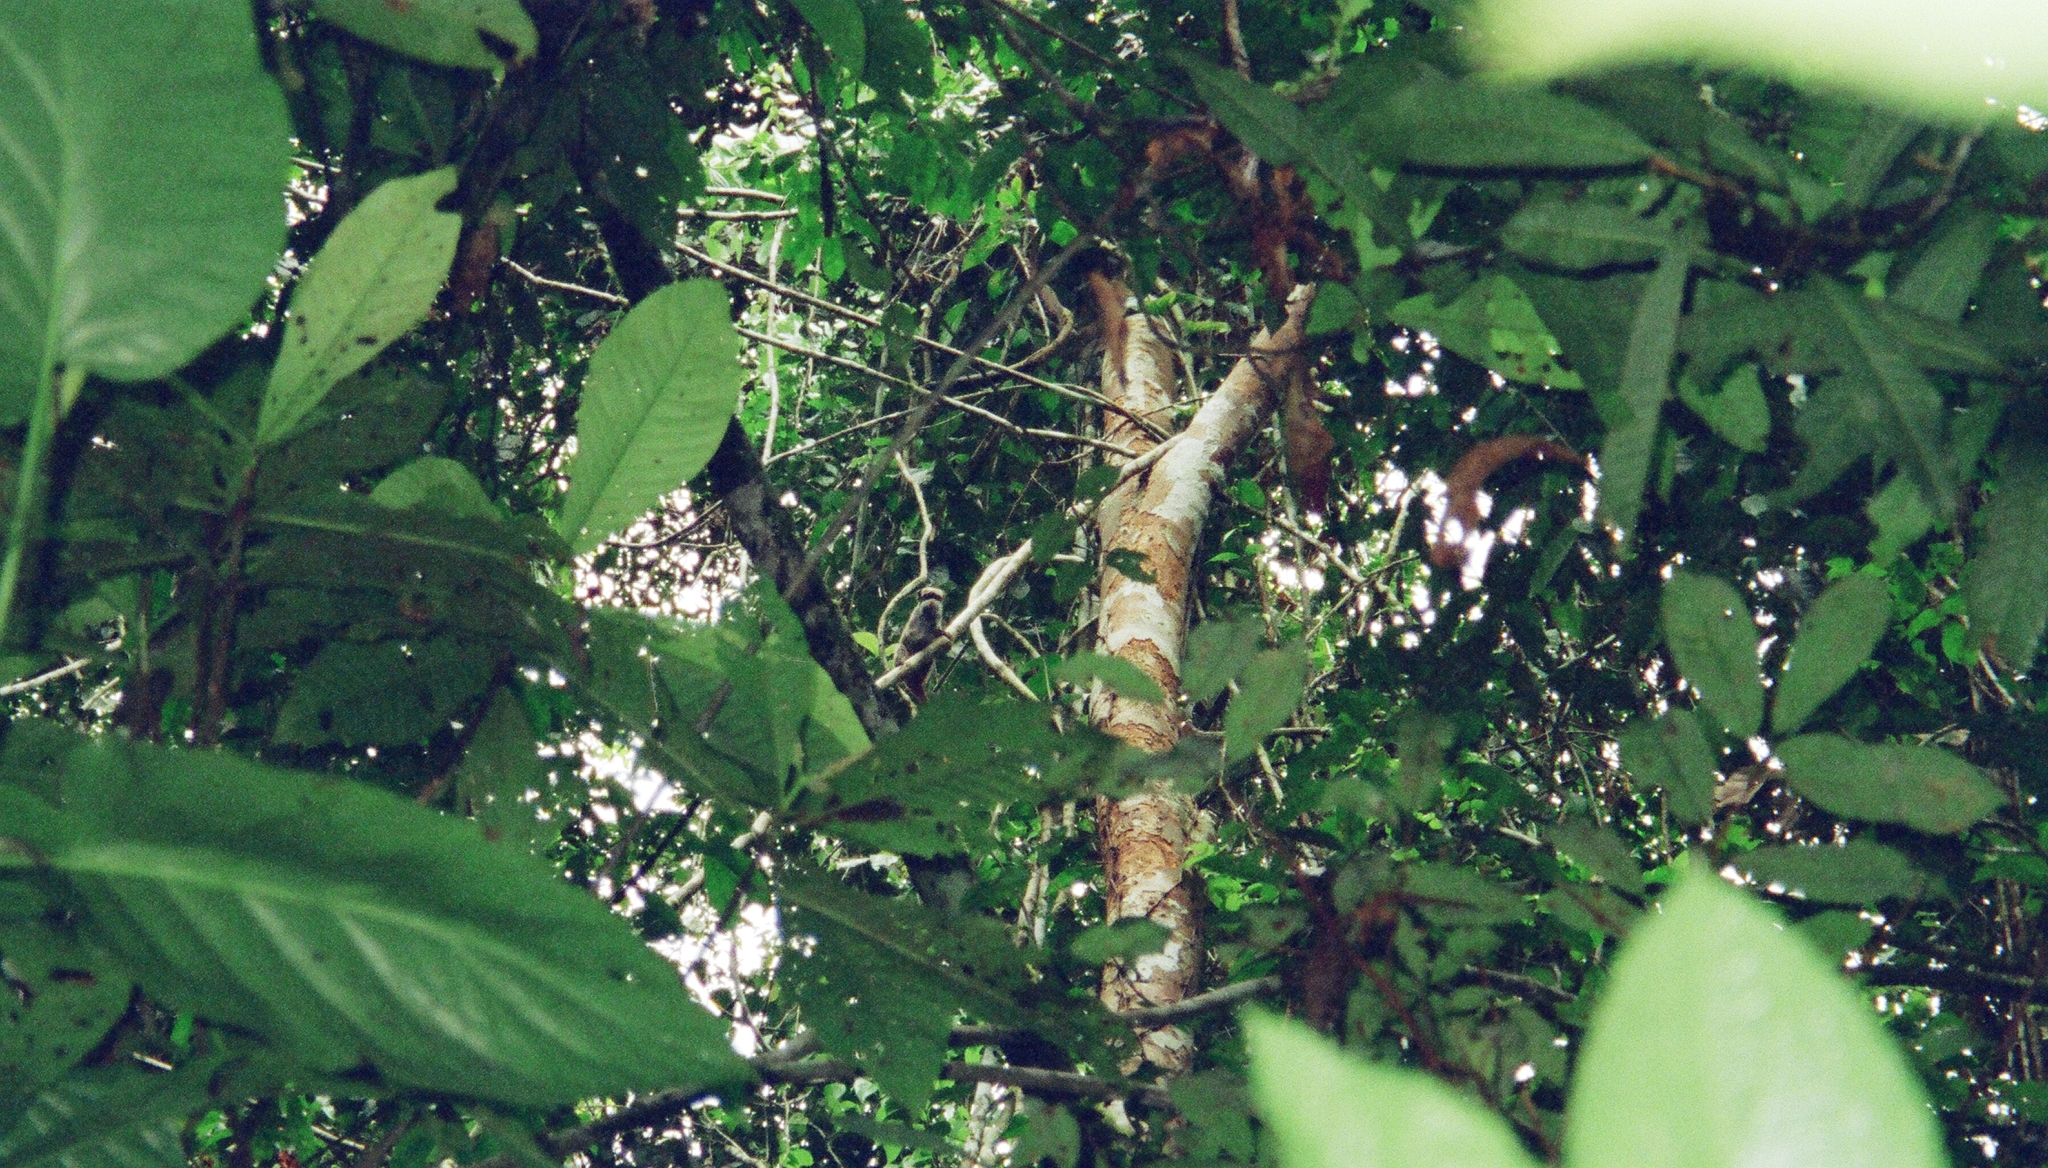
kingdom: Animalia
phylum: Chordata
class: Mammalia
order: Primates
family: Callitrichidae
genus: Saguinus
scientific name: Saguinus imperator
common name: Emperor tamarin
